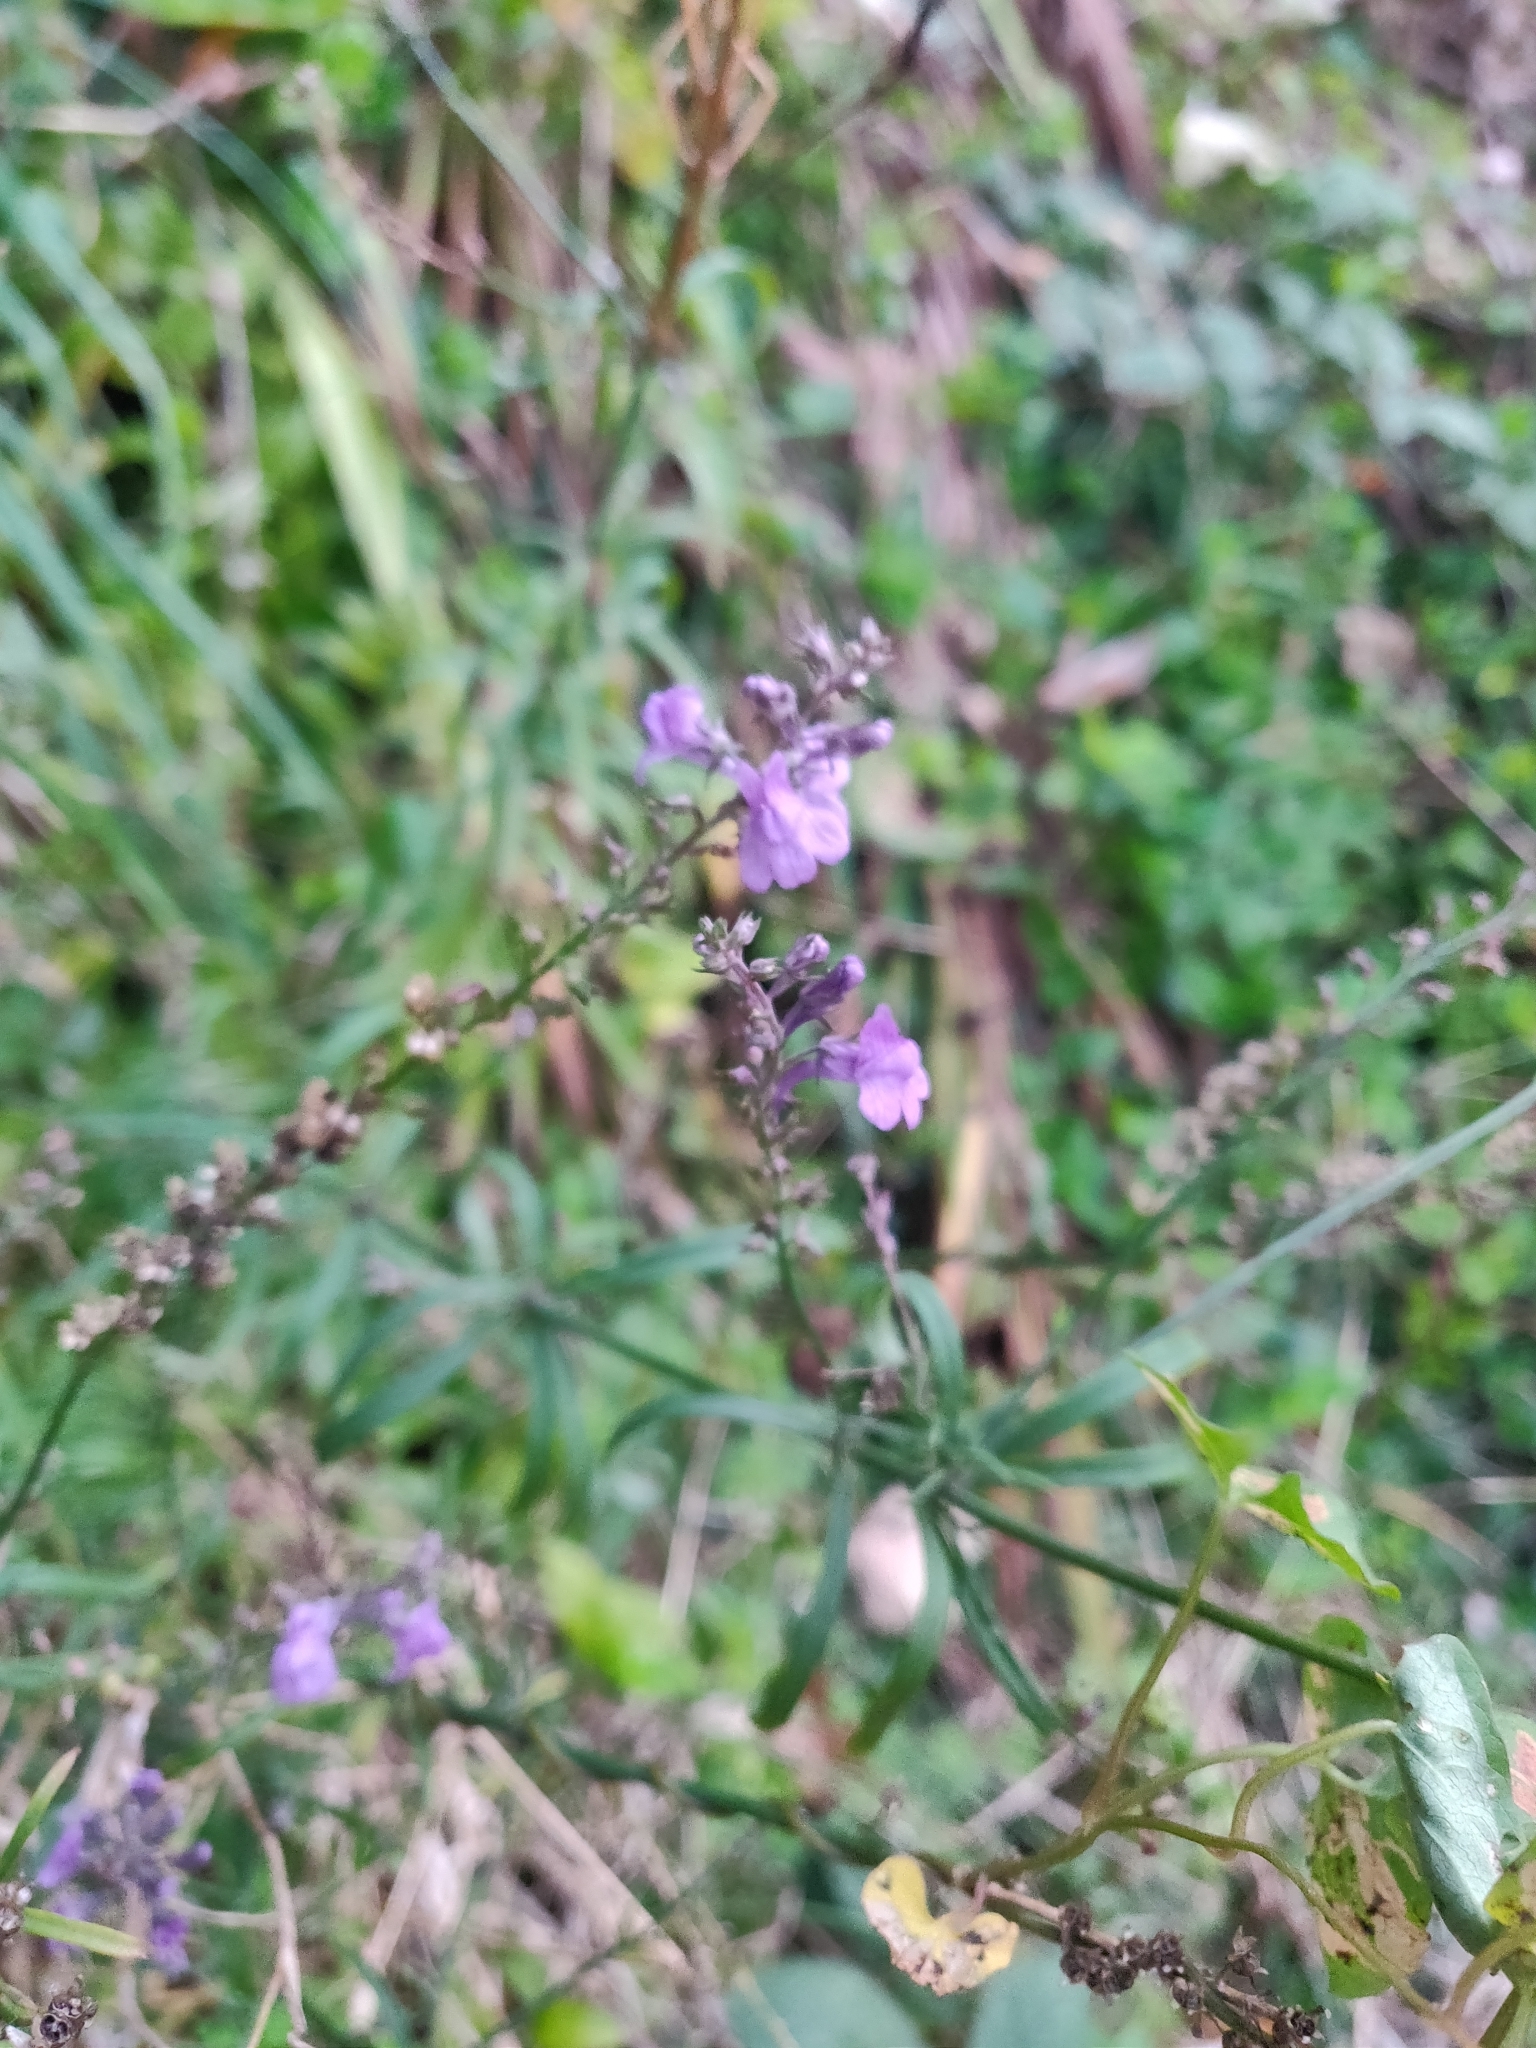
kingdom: Plantae
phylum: Tracheophyta
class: Magnoliopsida
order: Lamiales
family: Plantaginaceae
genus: Linaria
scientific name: Linaria purpurea
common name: Purple toadflax
